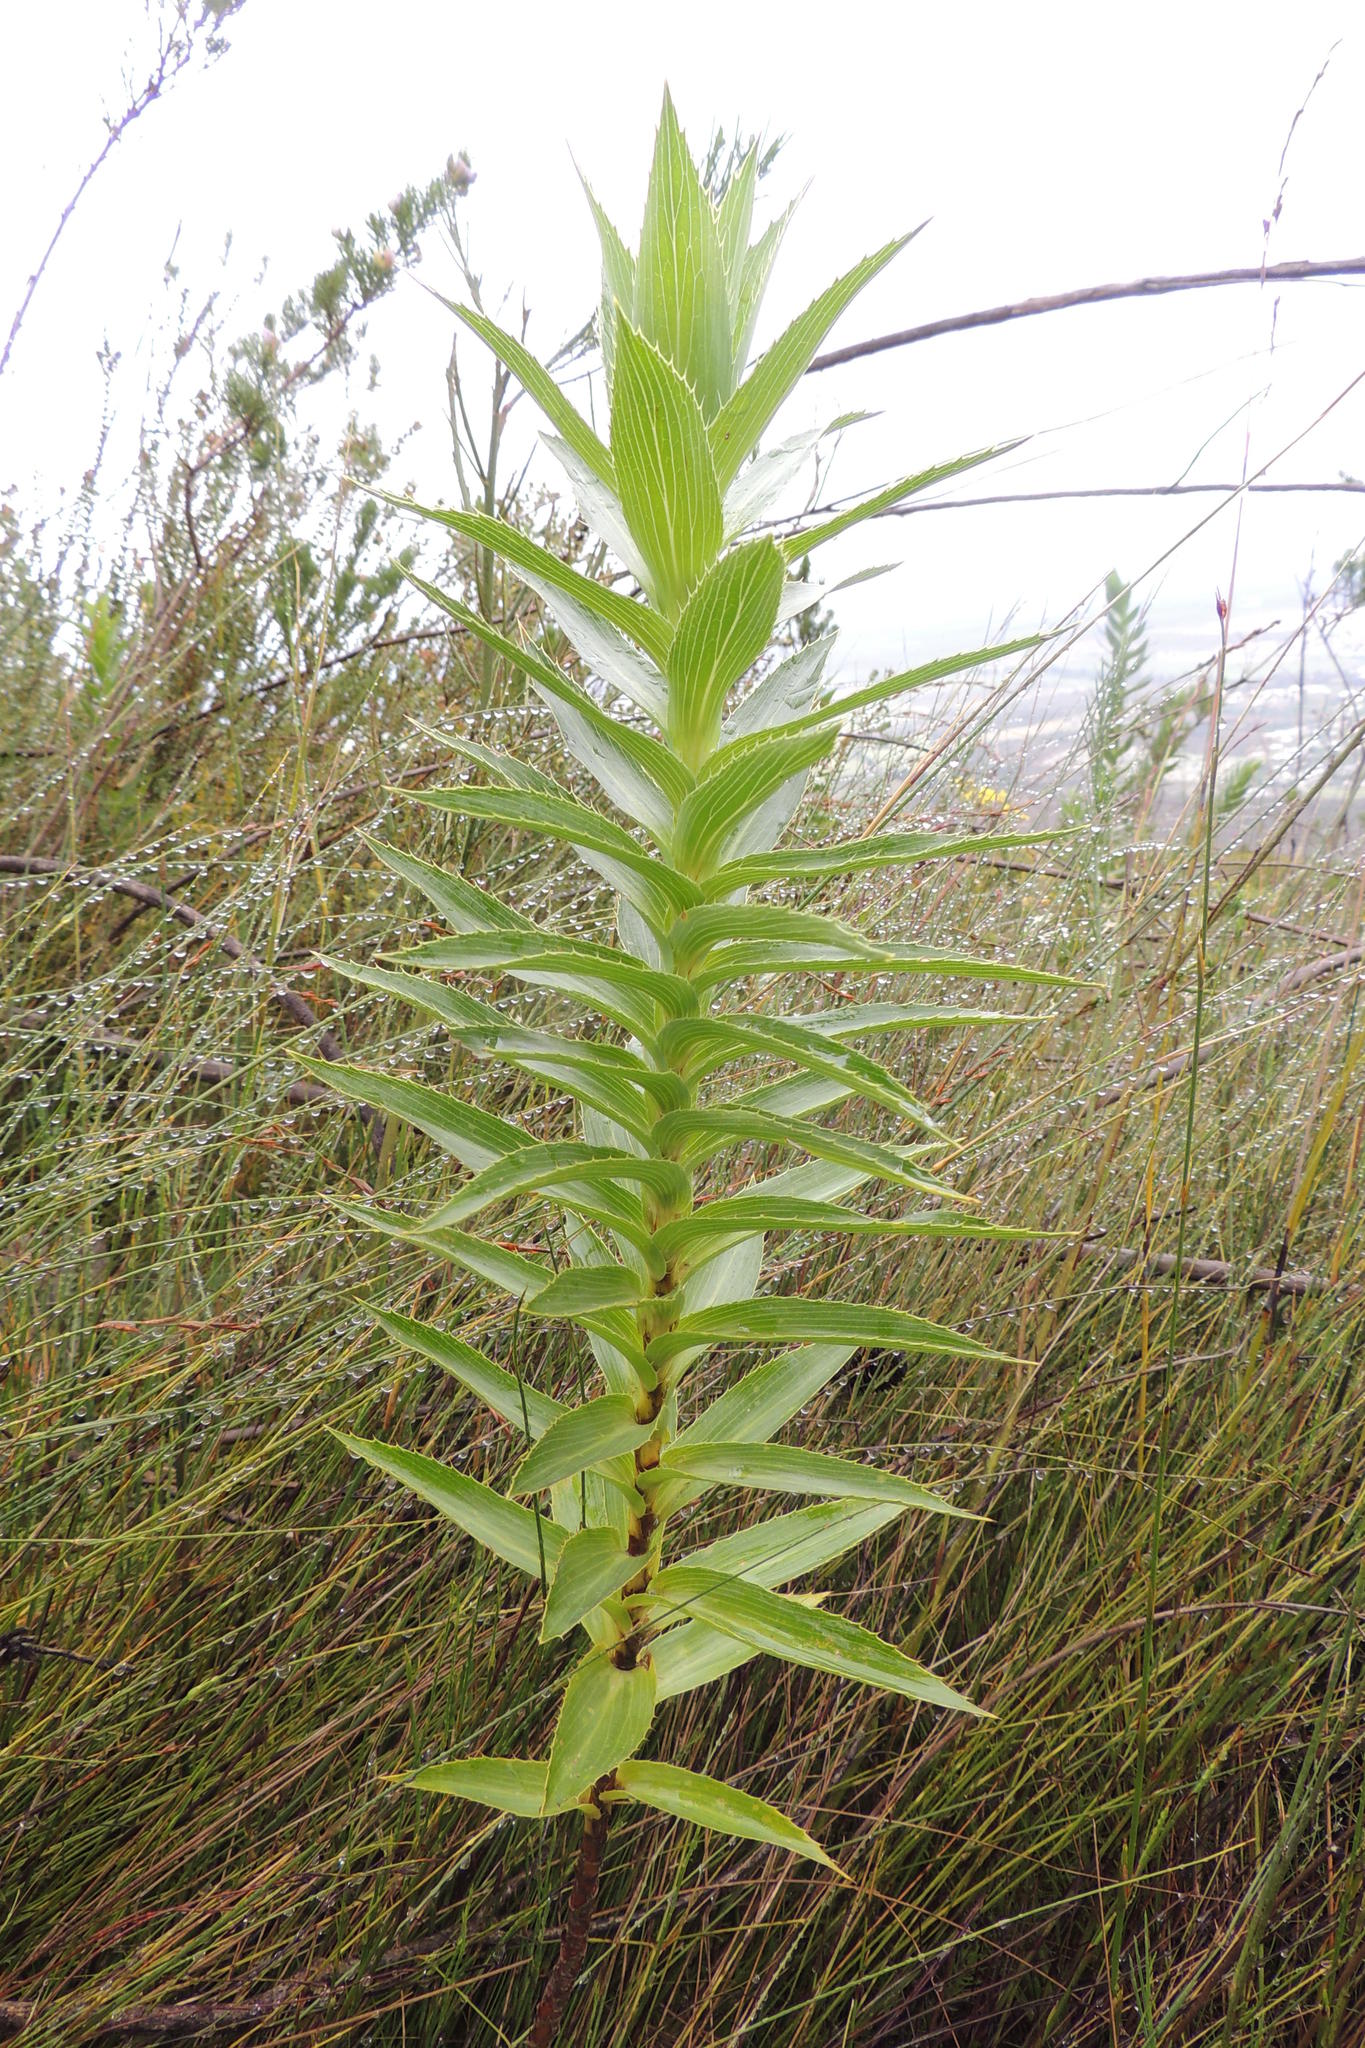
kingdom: Plantae
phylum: Tracheophyta
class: Magnoliopsida
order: Rosales
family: Rosaceae
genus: Cliffortia
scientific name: Cliffortia grandifolia
